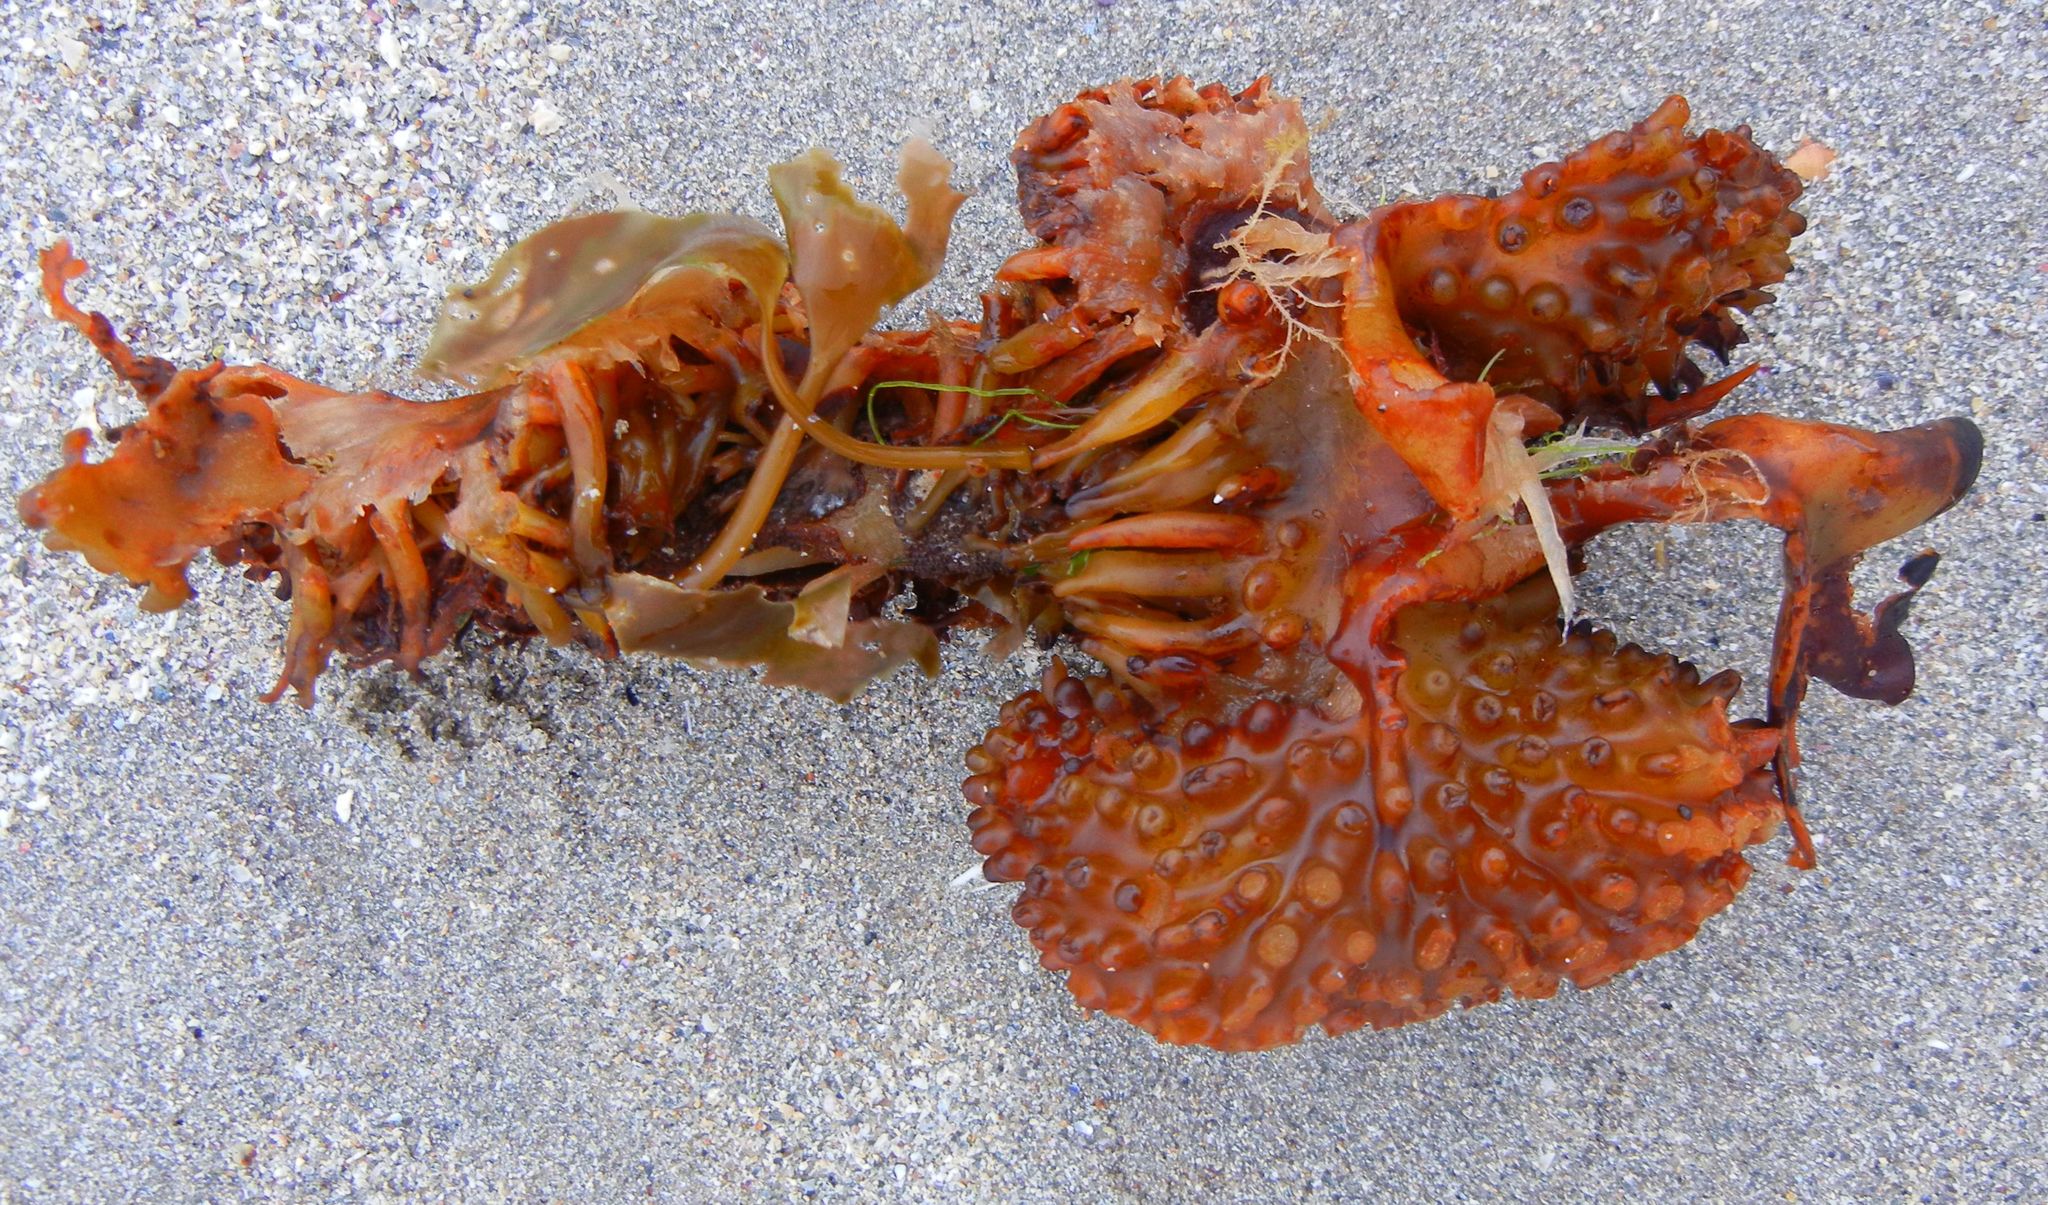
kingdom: Chromista
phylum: Ochrophyta
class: Phaeophyceae
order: Tilopteridales
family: Phyllariaceae
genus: Saccorhiza
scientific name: Saccorhiza polyschides
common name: Furbelows
